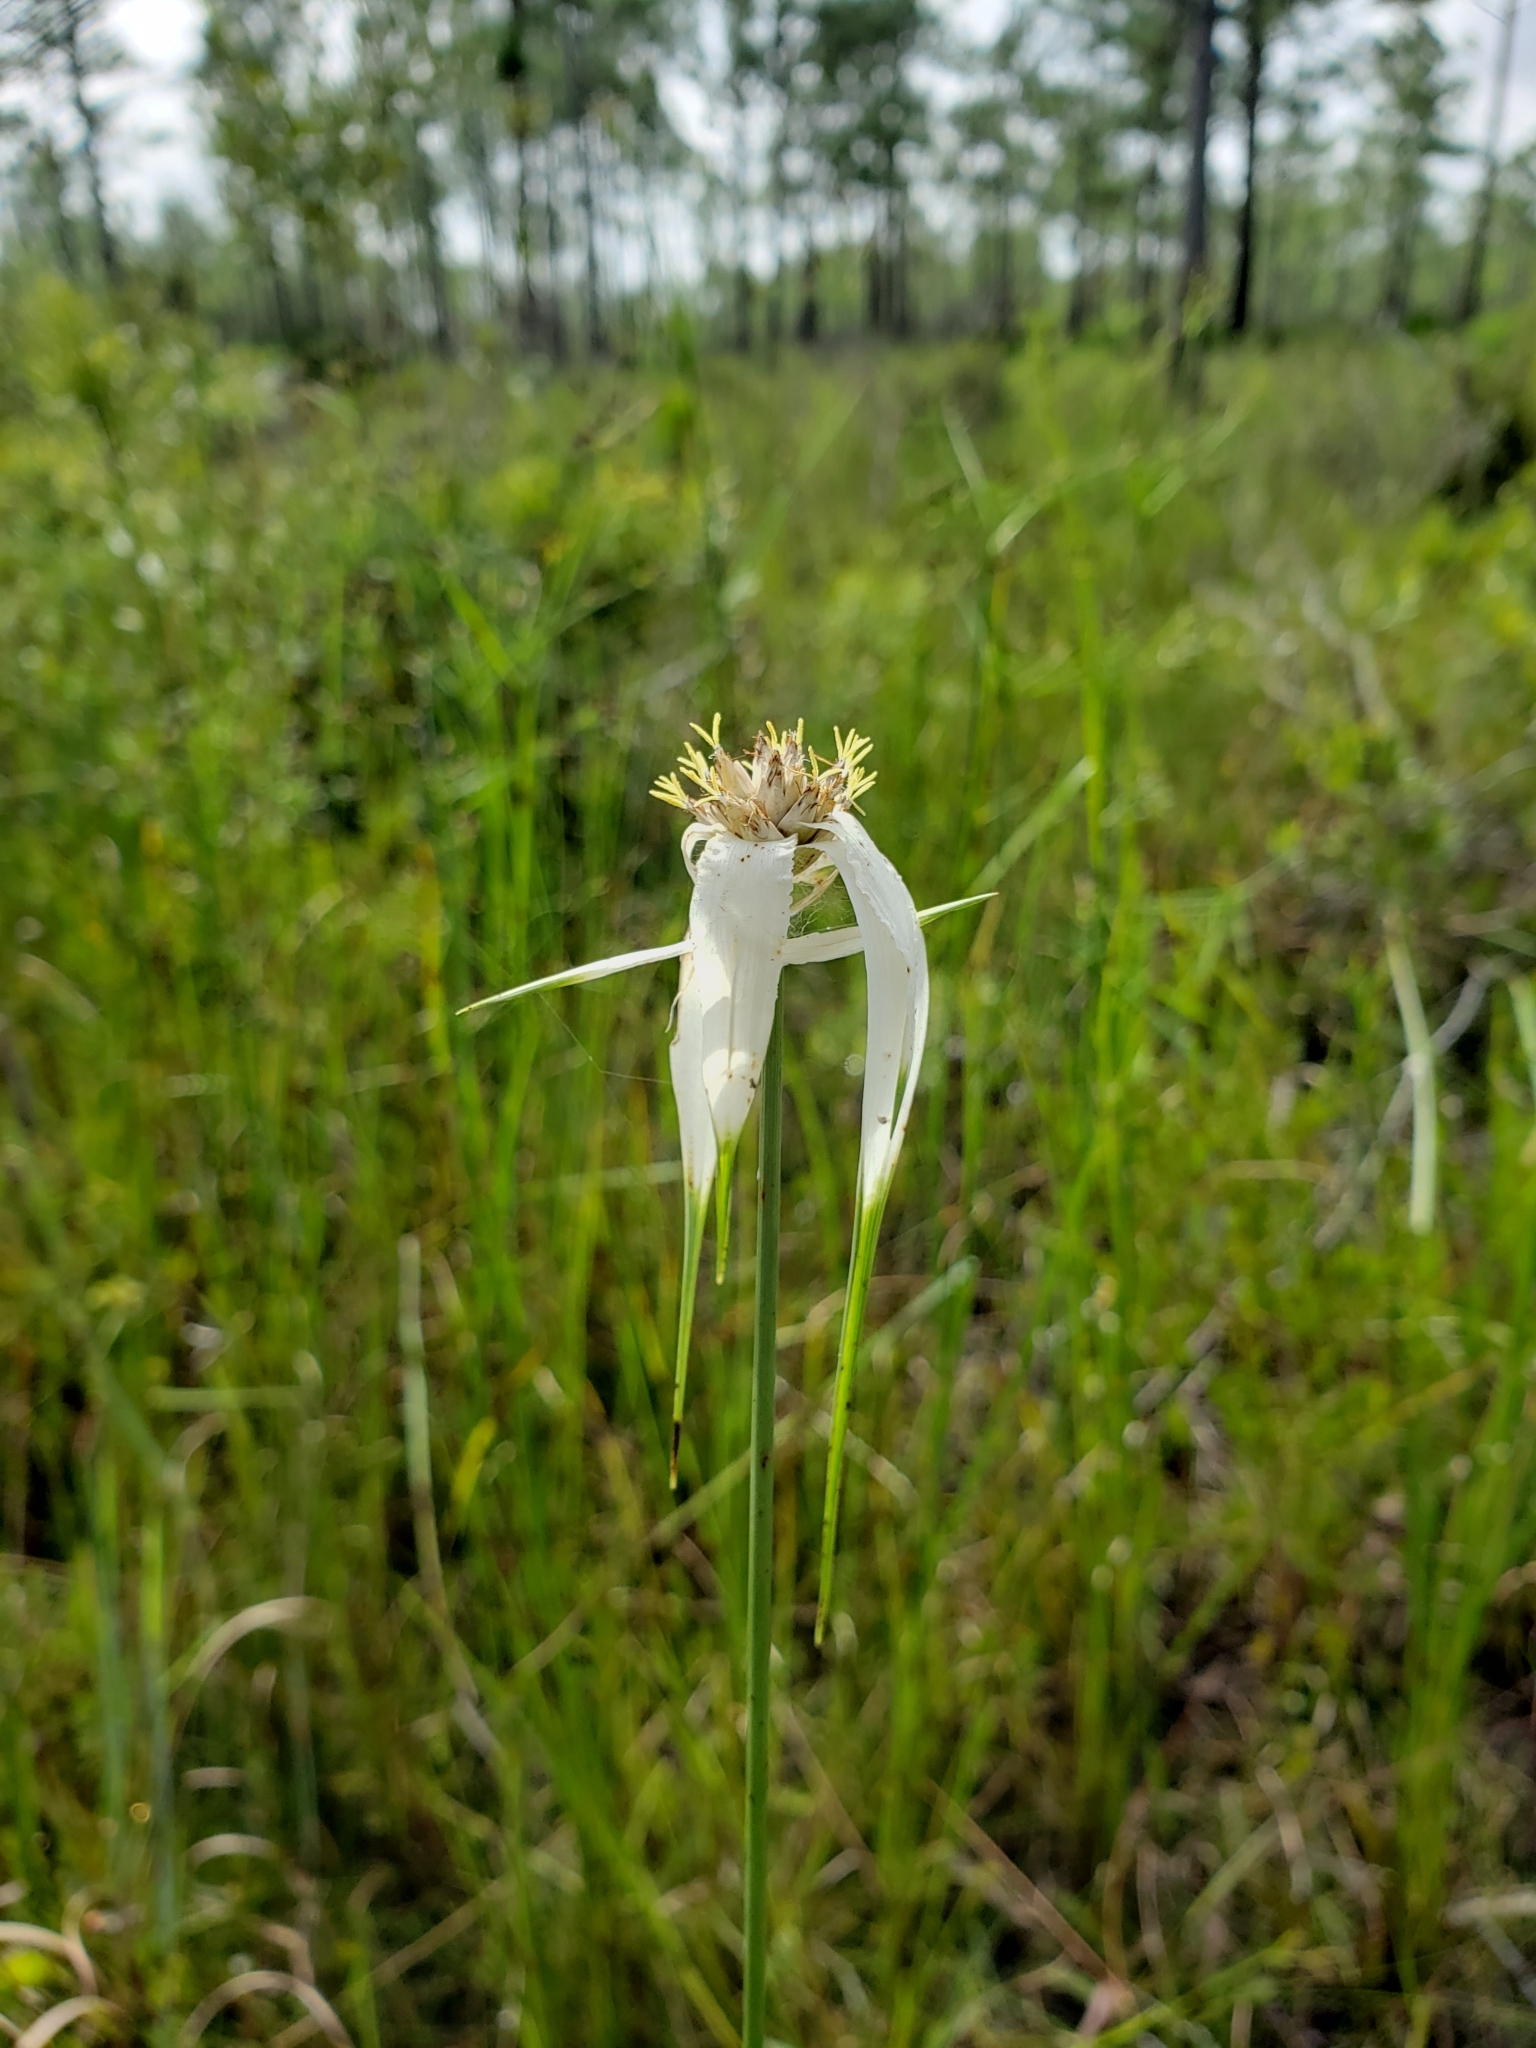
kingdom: Plantae
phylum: Tracheophyta
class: Liliopsida
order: Poales
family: Cyperaceae
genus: Rhynchospora
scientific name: Rhynchospora latifolia
